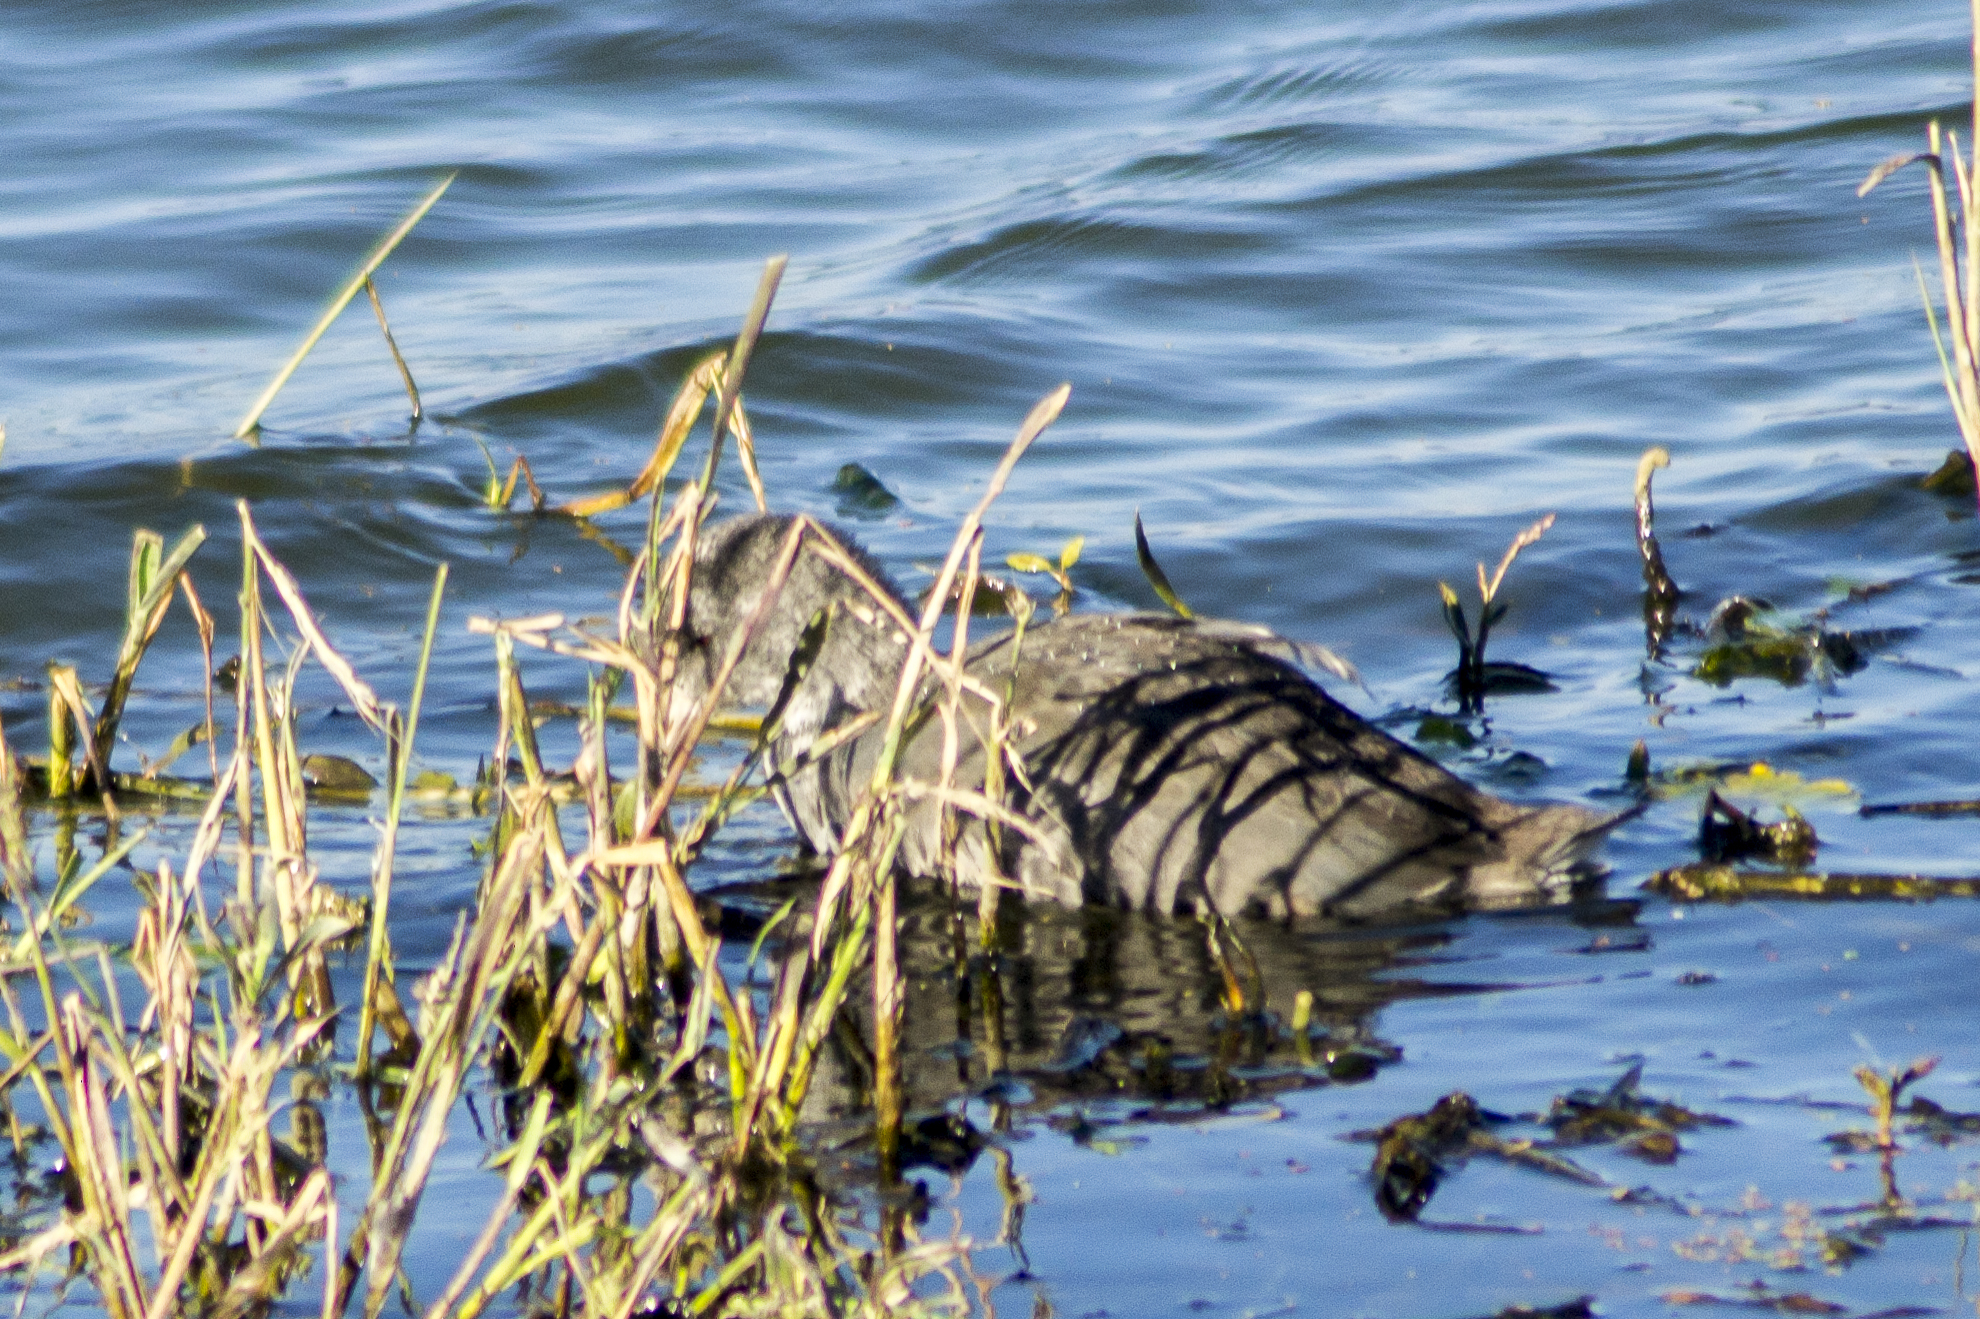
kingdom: Animalia
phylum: Chordata
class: Aves
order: Gruiformes
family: Rallidae
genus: Fulica
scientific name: Fulica americana
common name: American coot
